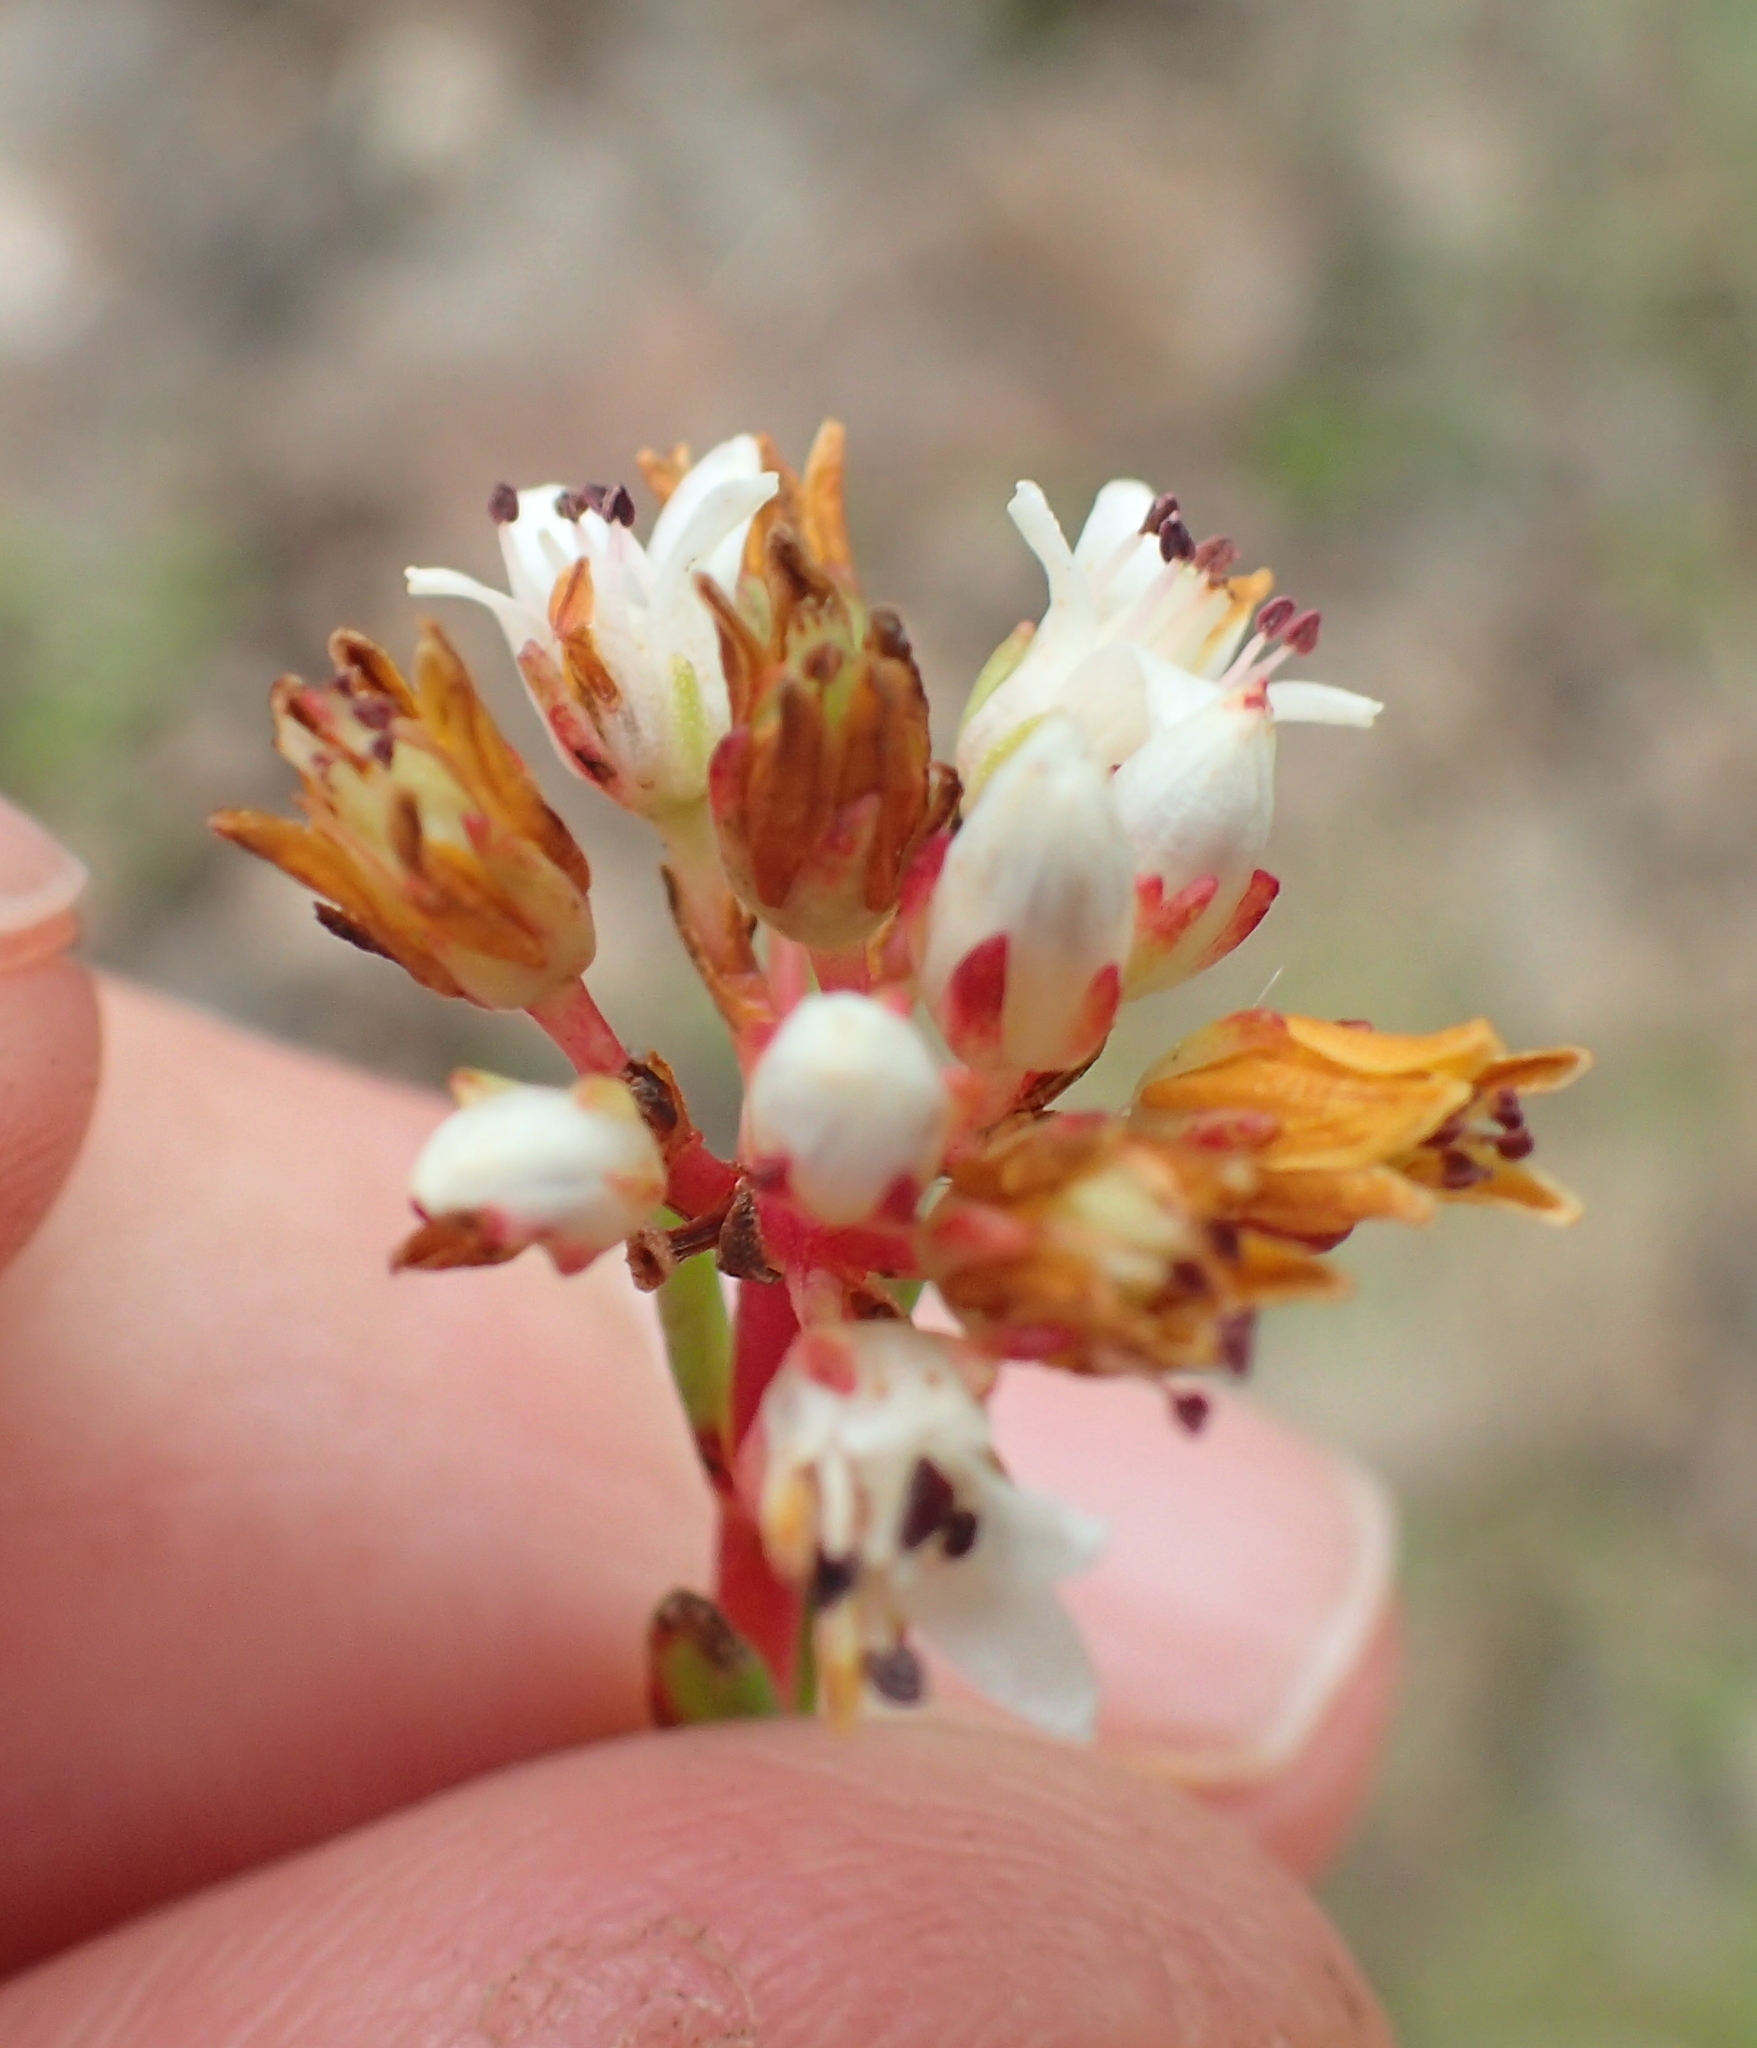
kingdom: Plantae
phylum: Tracheophyta
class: Magnoliopsida
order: Saxifragales
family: Crassulaceae
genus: Crassula
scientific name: Crassula dependens
